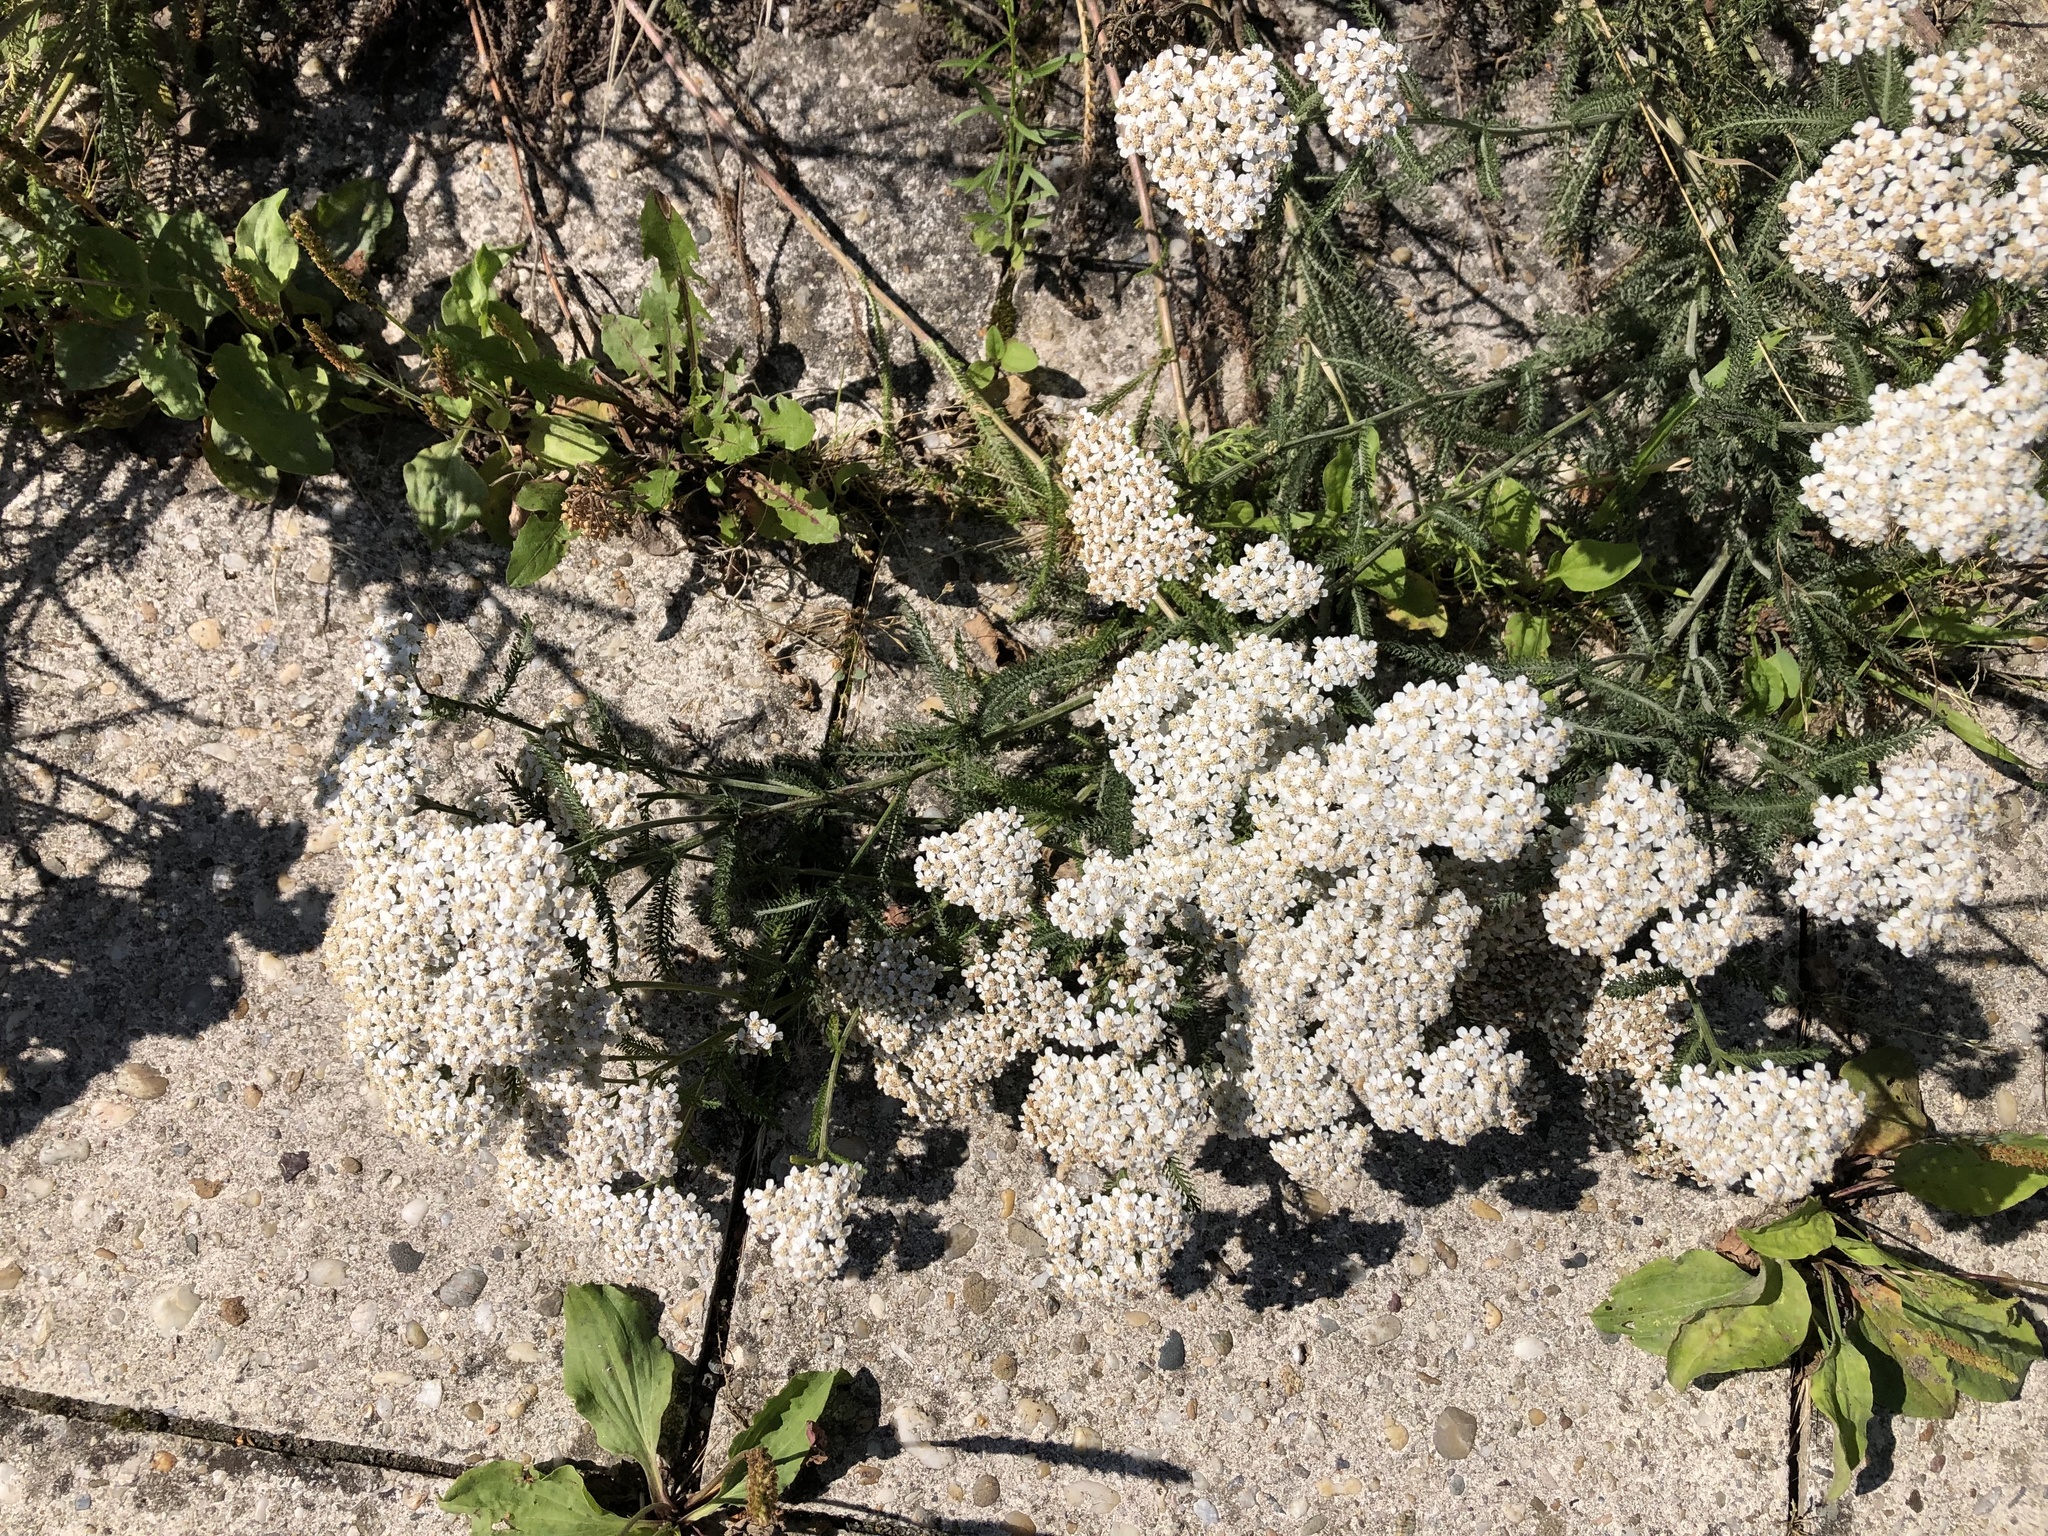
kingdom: Plantae
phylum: Tracheophyta
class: Magnoliopsida
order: Asterales
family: Asteraceae
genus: Achillea
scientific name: Achillea millefolium
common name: Yarrow
